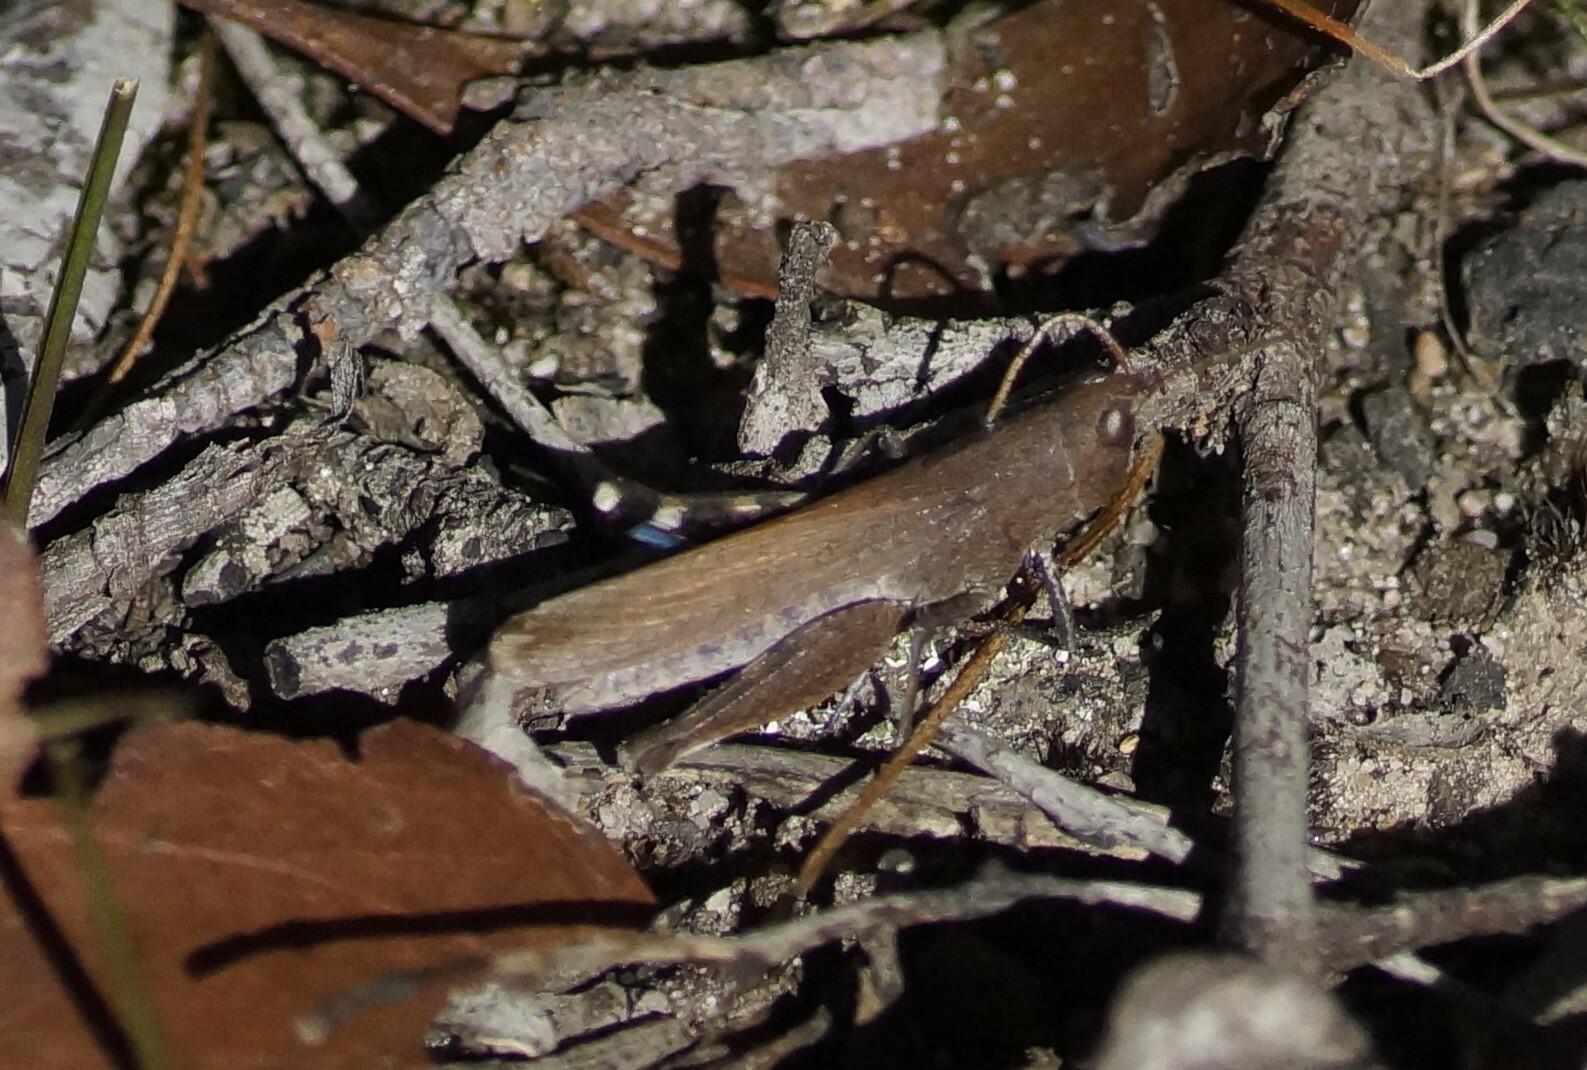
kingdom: Animalia
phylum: Arthropoda
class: Insecta
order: Orthoptera
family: Acrididae
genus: Goniaea
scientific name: Goniaea opomaloides
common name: Mimetic gumleaf grasshopper
